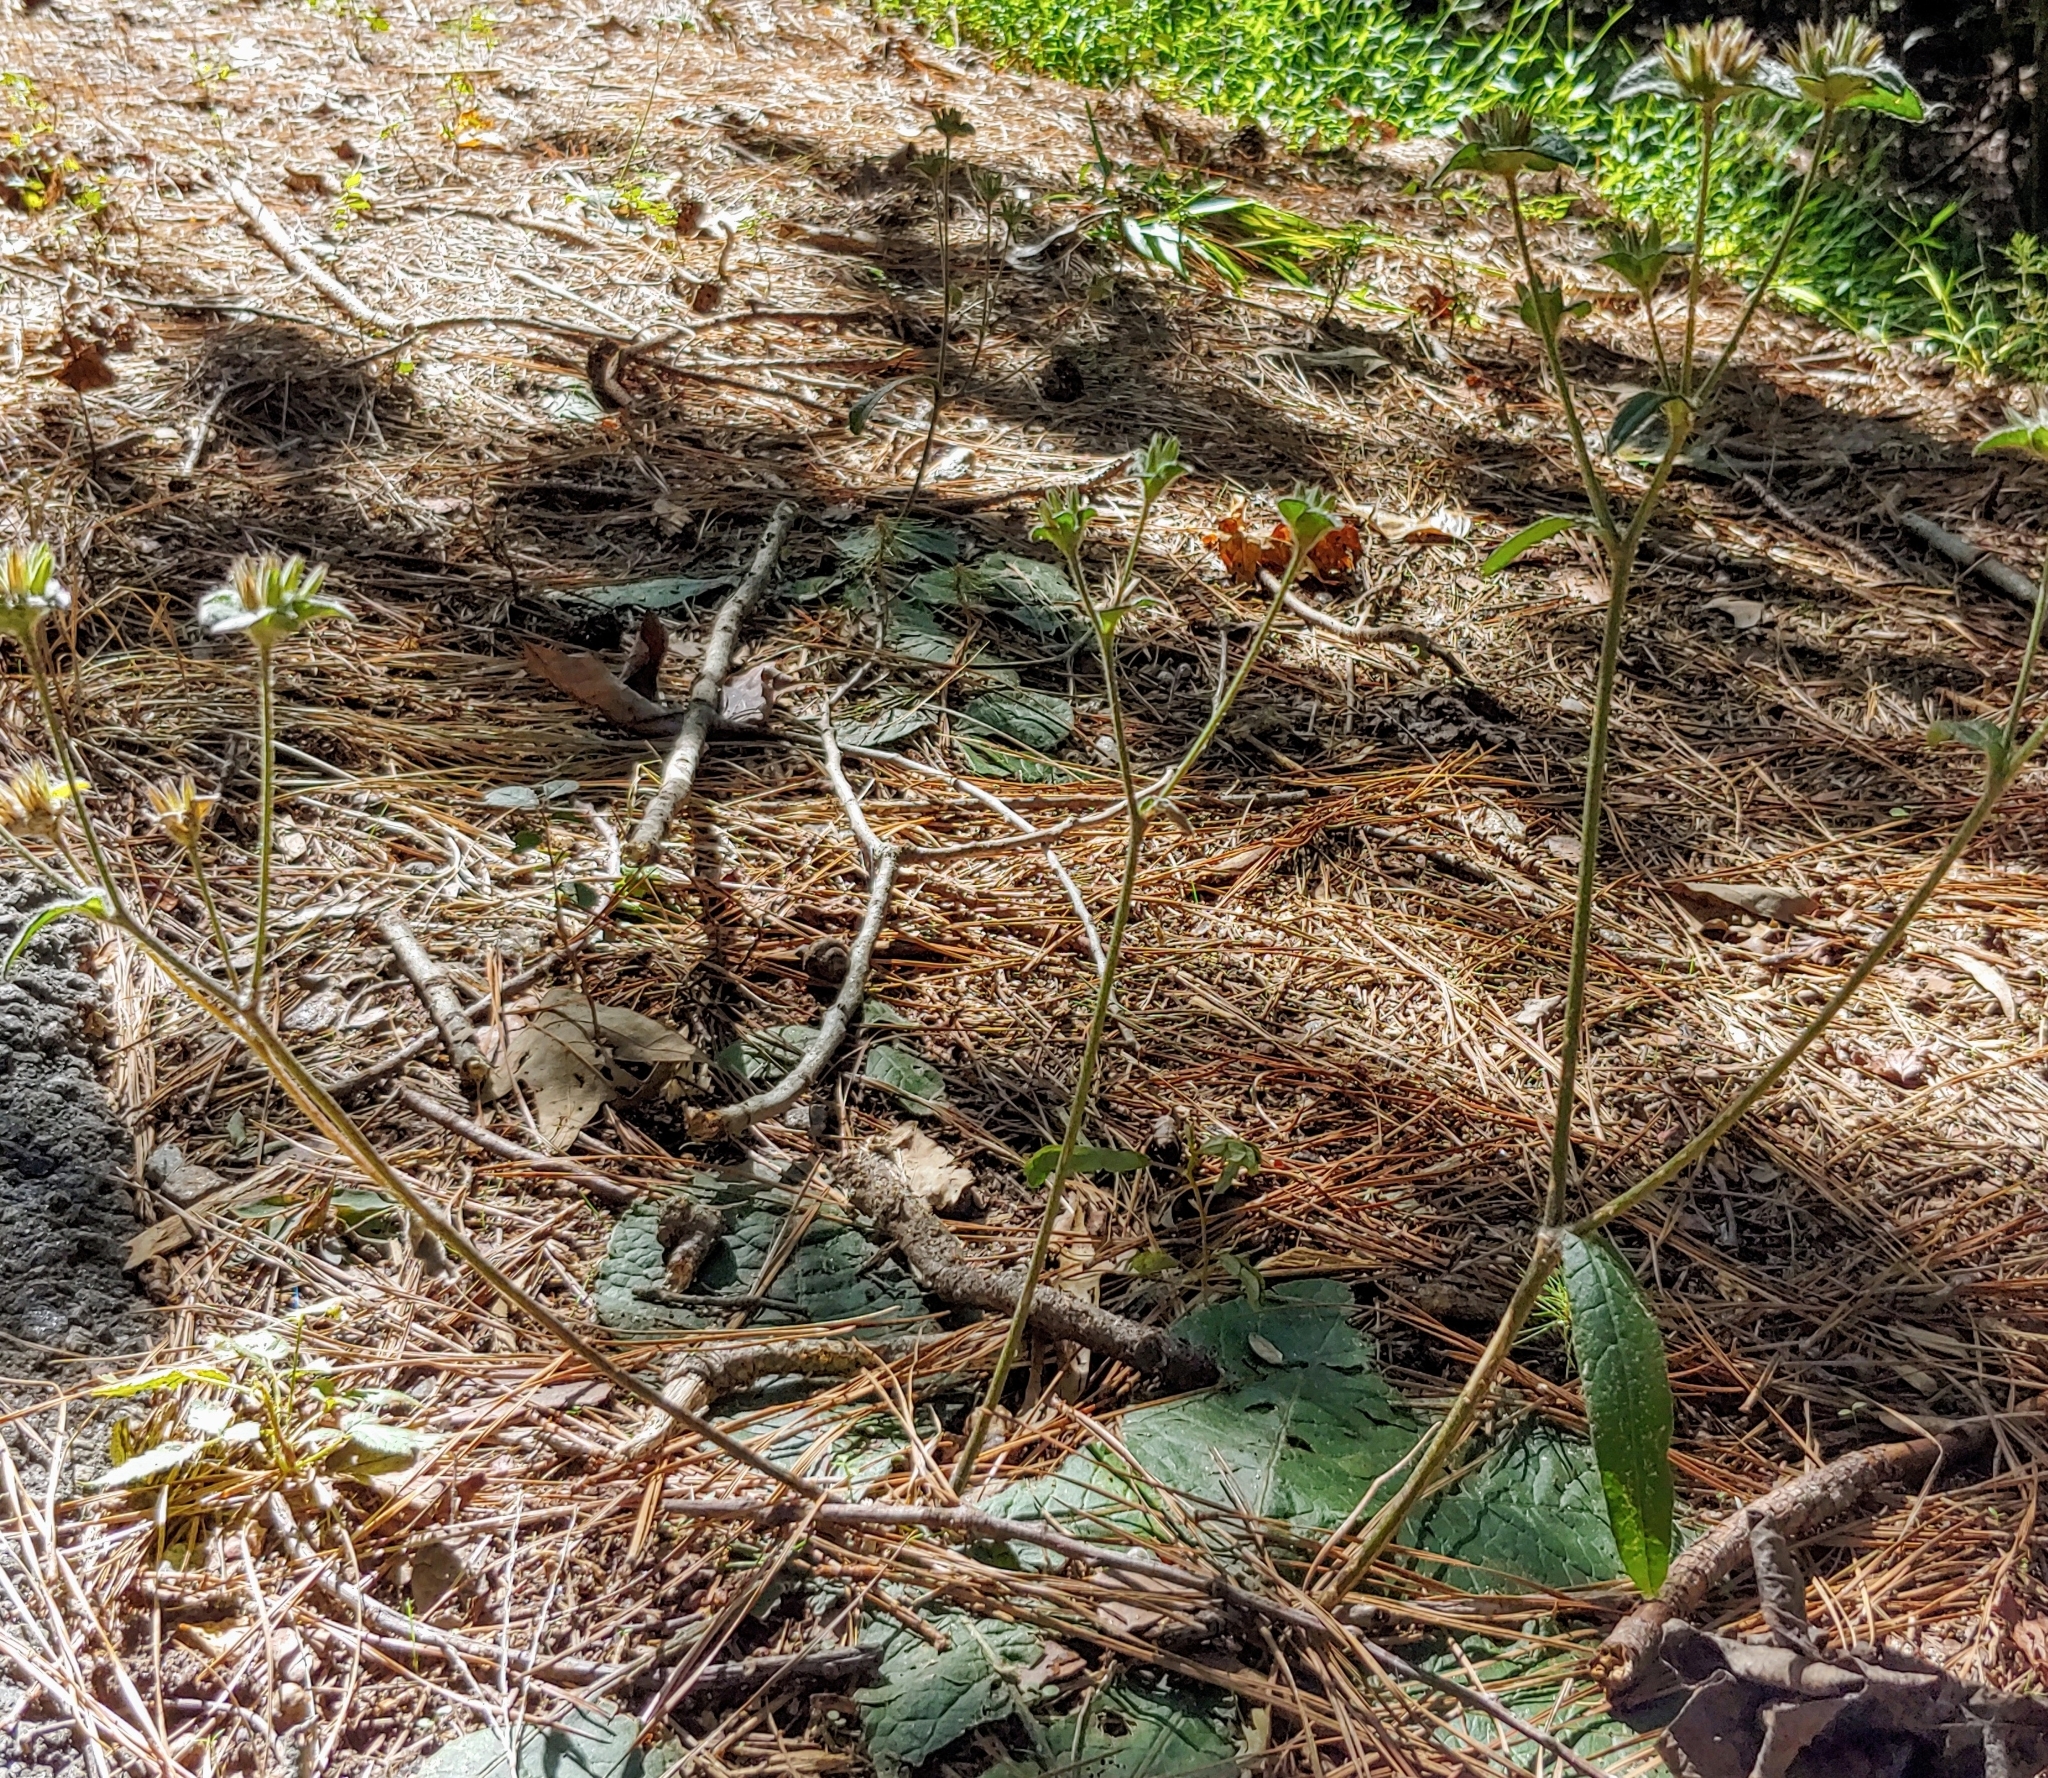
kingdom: Plantae
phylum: Tracheophyta
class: Magnoliopsida
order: Asterales
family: Asteraceae
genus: Elephantopus
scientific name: Elephantopus tomentosus
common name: Tobacco-weed
